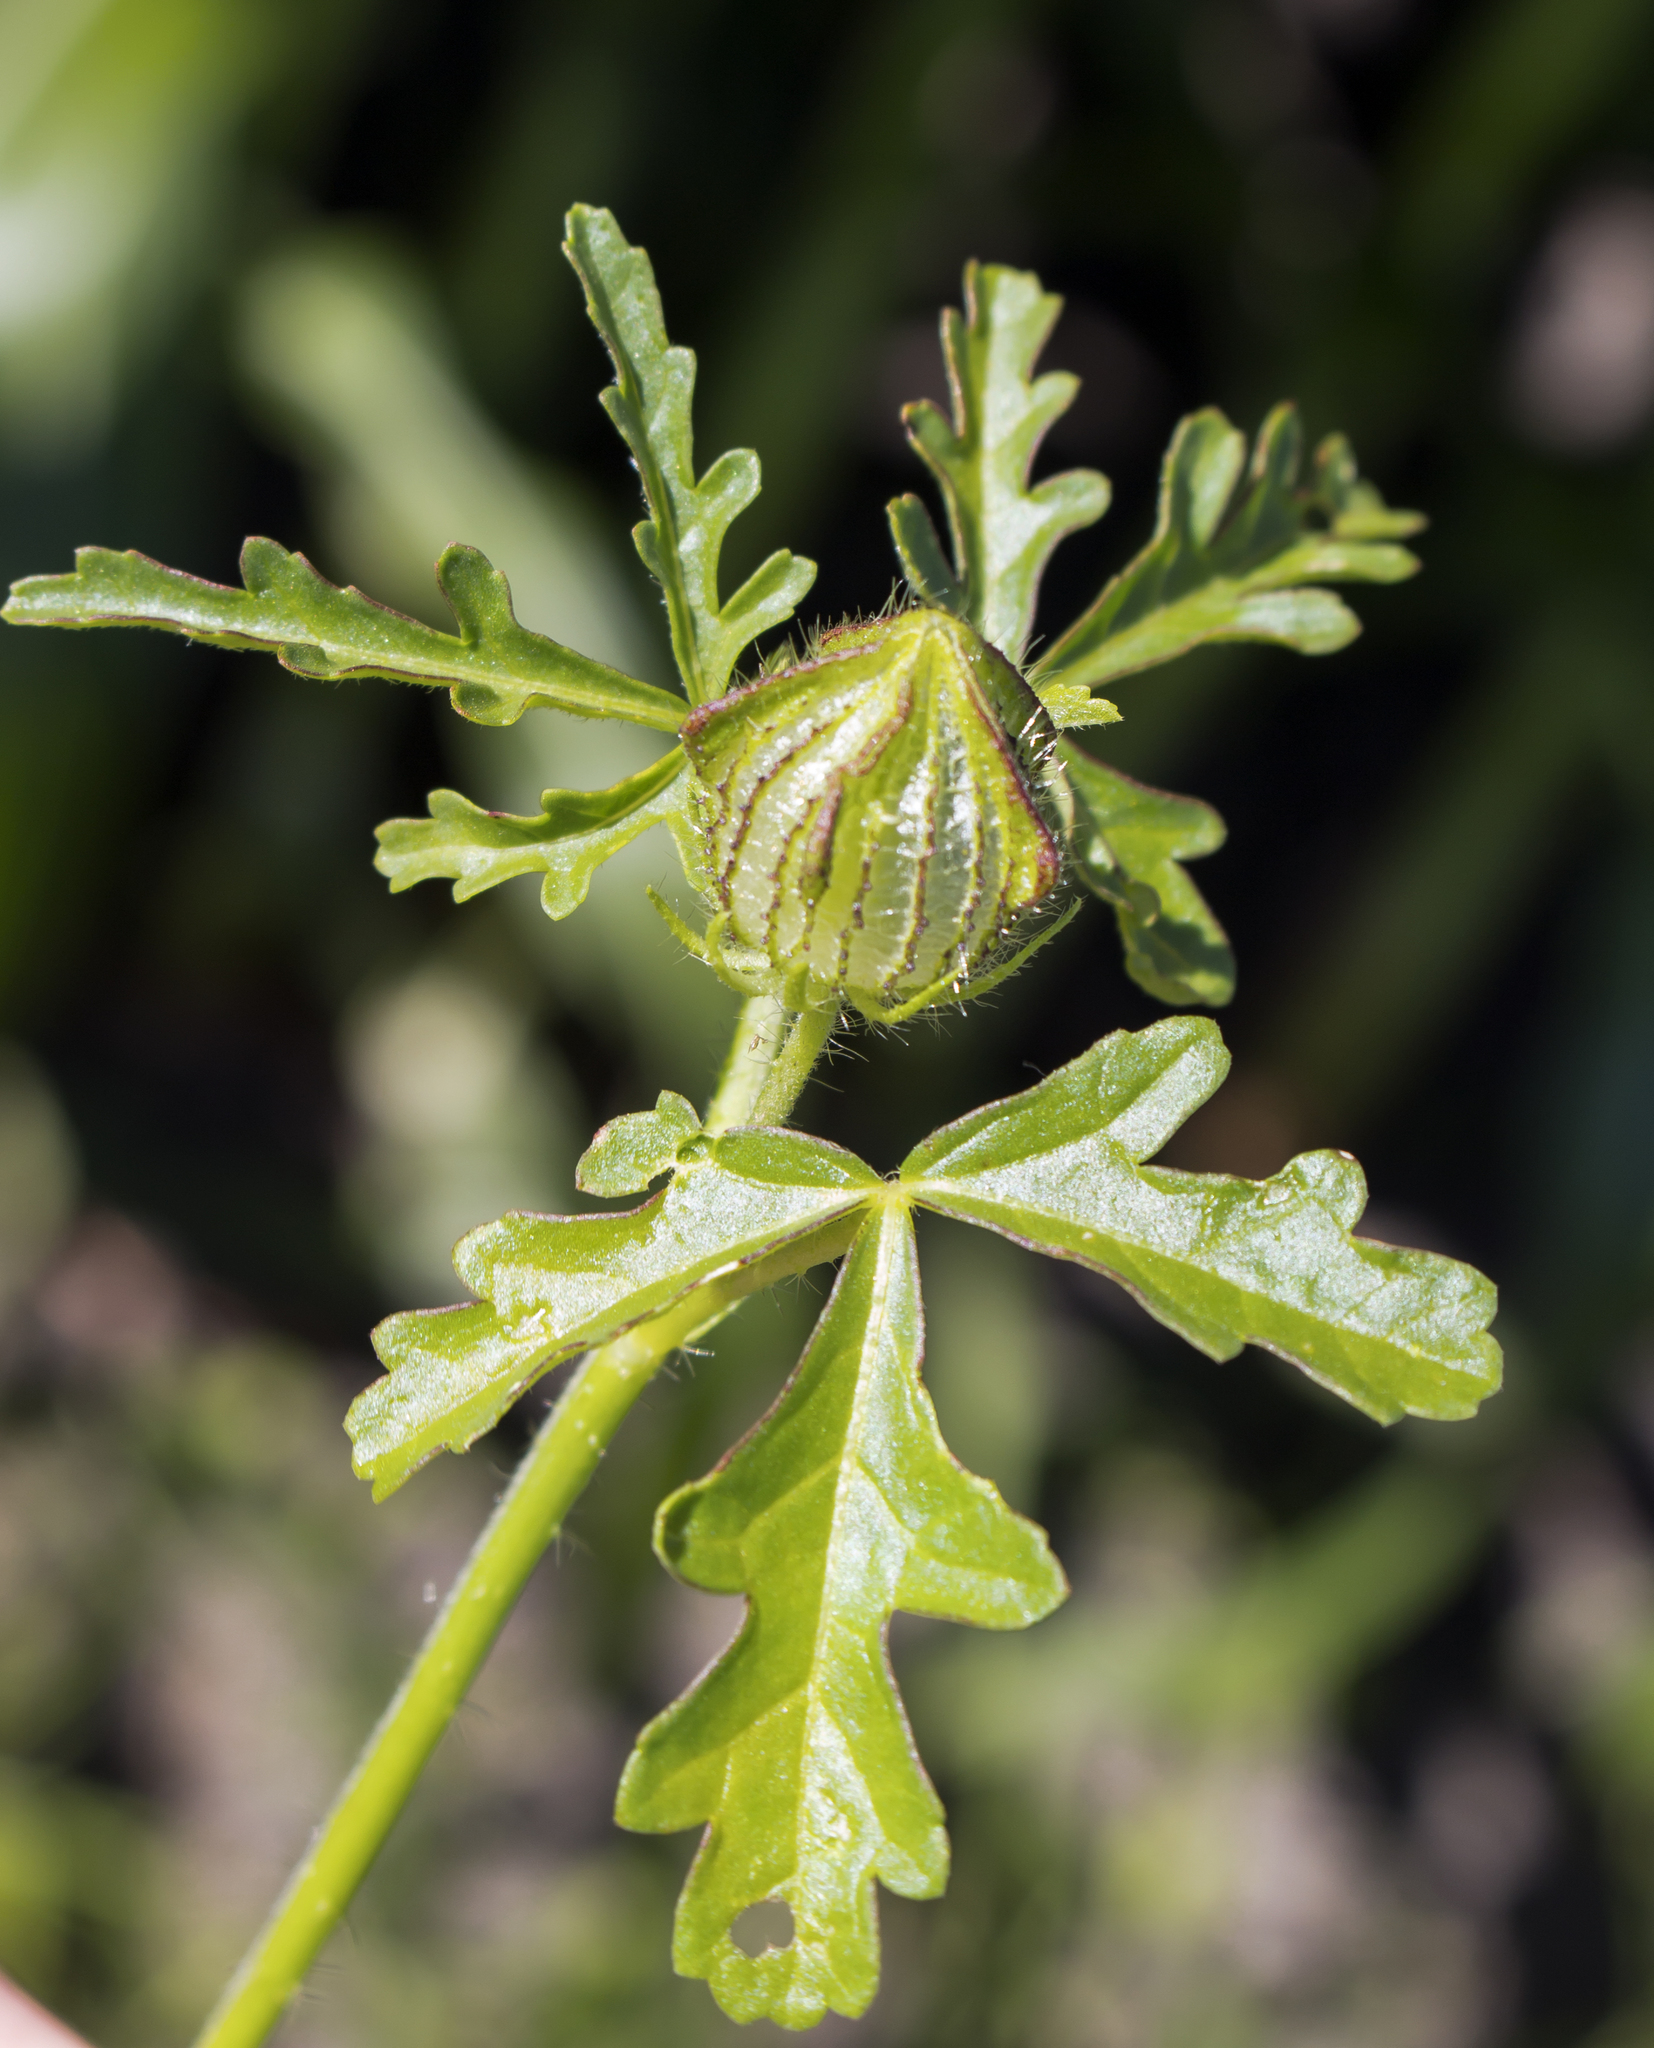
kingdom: Plantae
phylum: Tracheophyta
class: Magnoliopsida
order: Malvales
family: Malvaceae
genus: Hibiscus
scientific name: Hibiscus trionum
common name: Bladder ketmia
